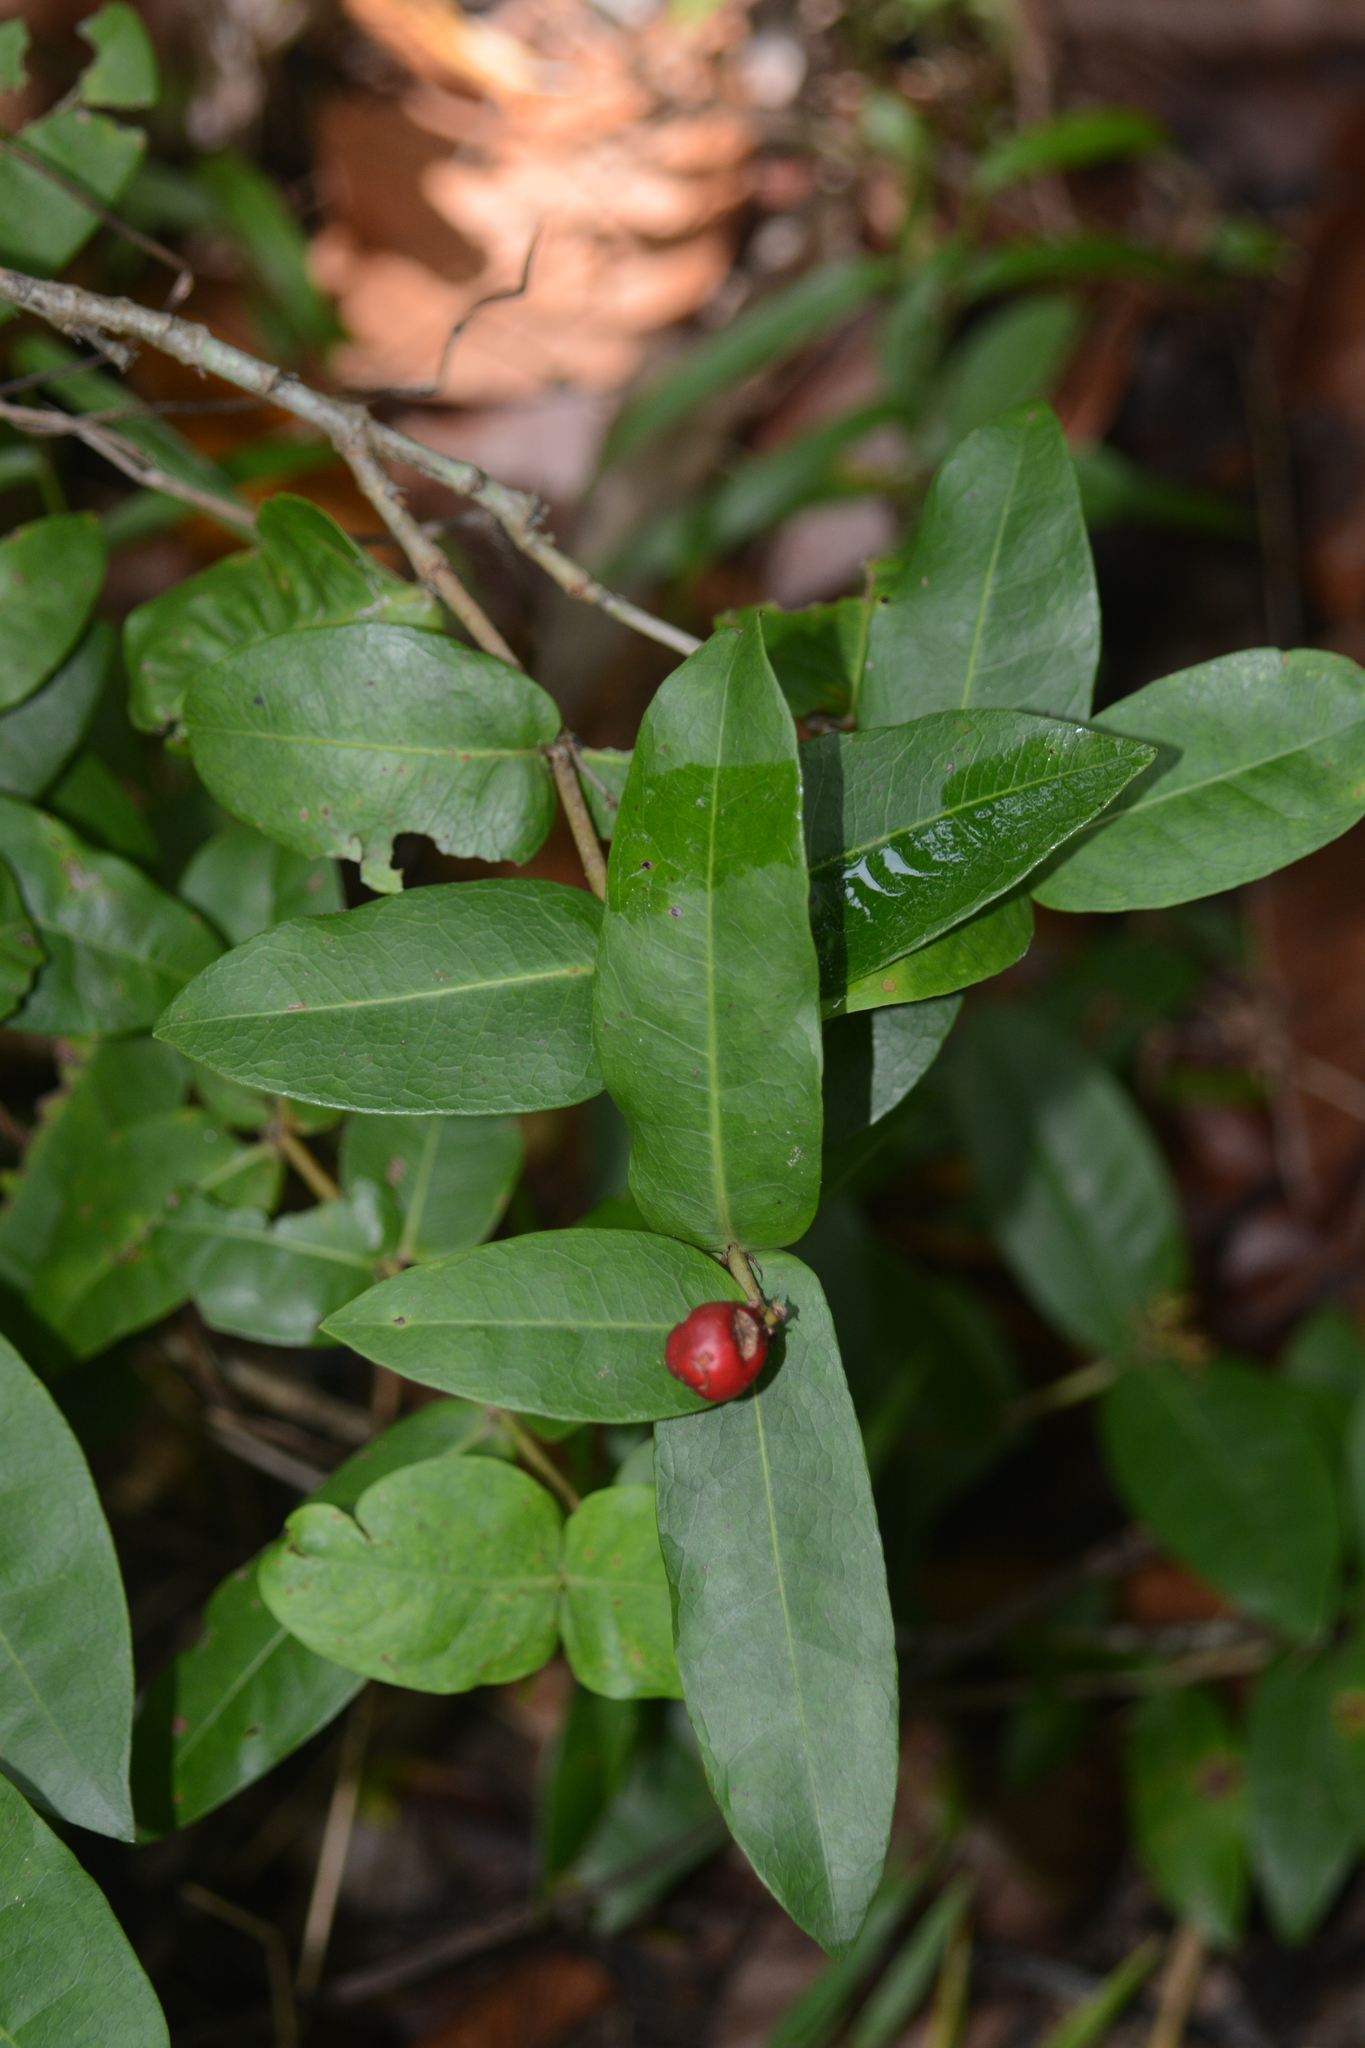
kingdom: Plantae
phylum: Tracheophyta
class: Magnoliopsida
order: Gentianales
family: Rubiaceae
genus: Ixora
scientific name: Ixora coccinea
